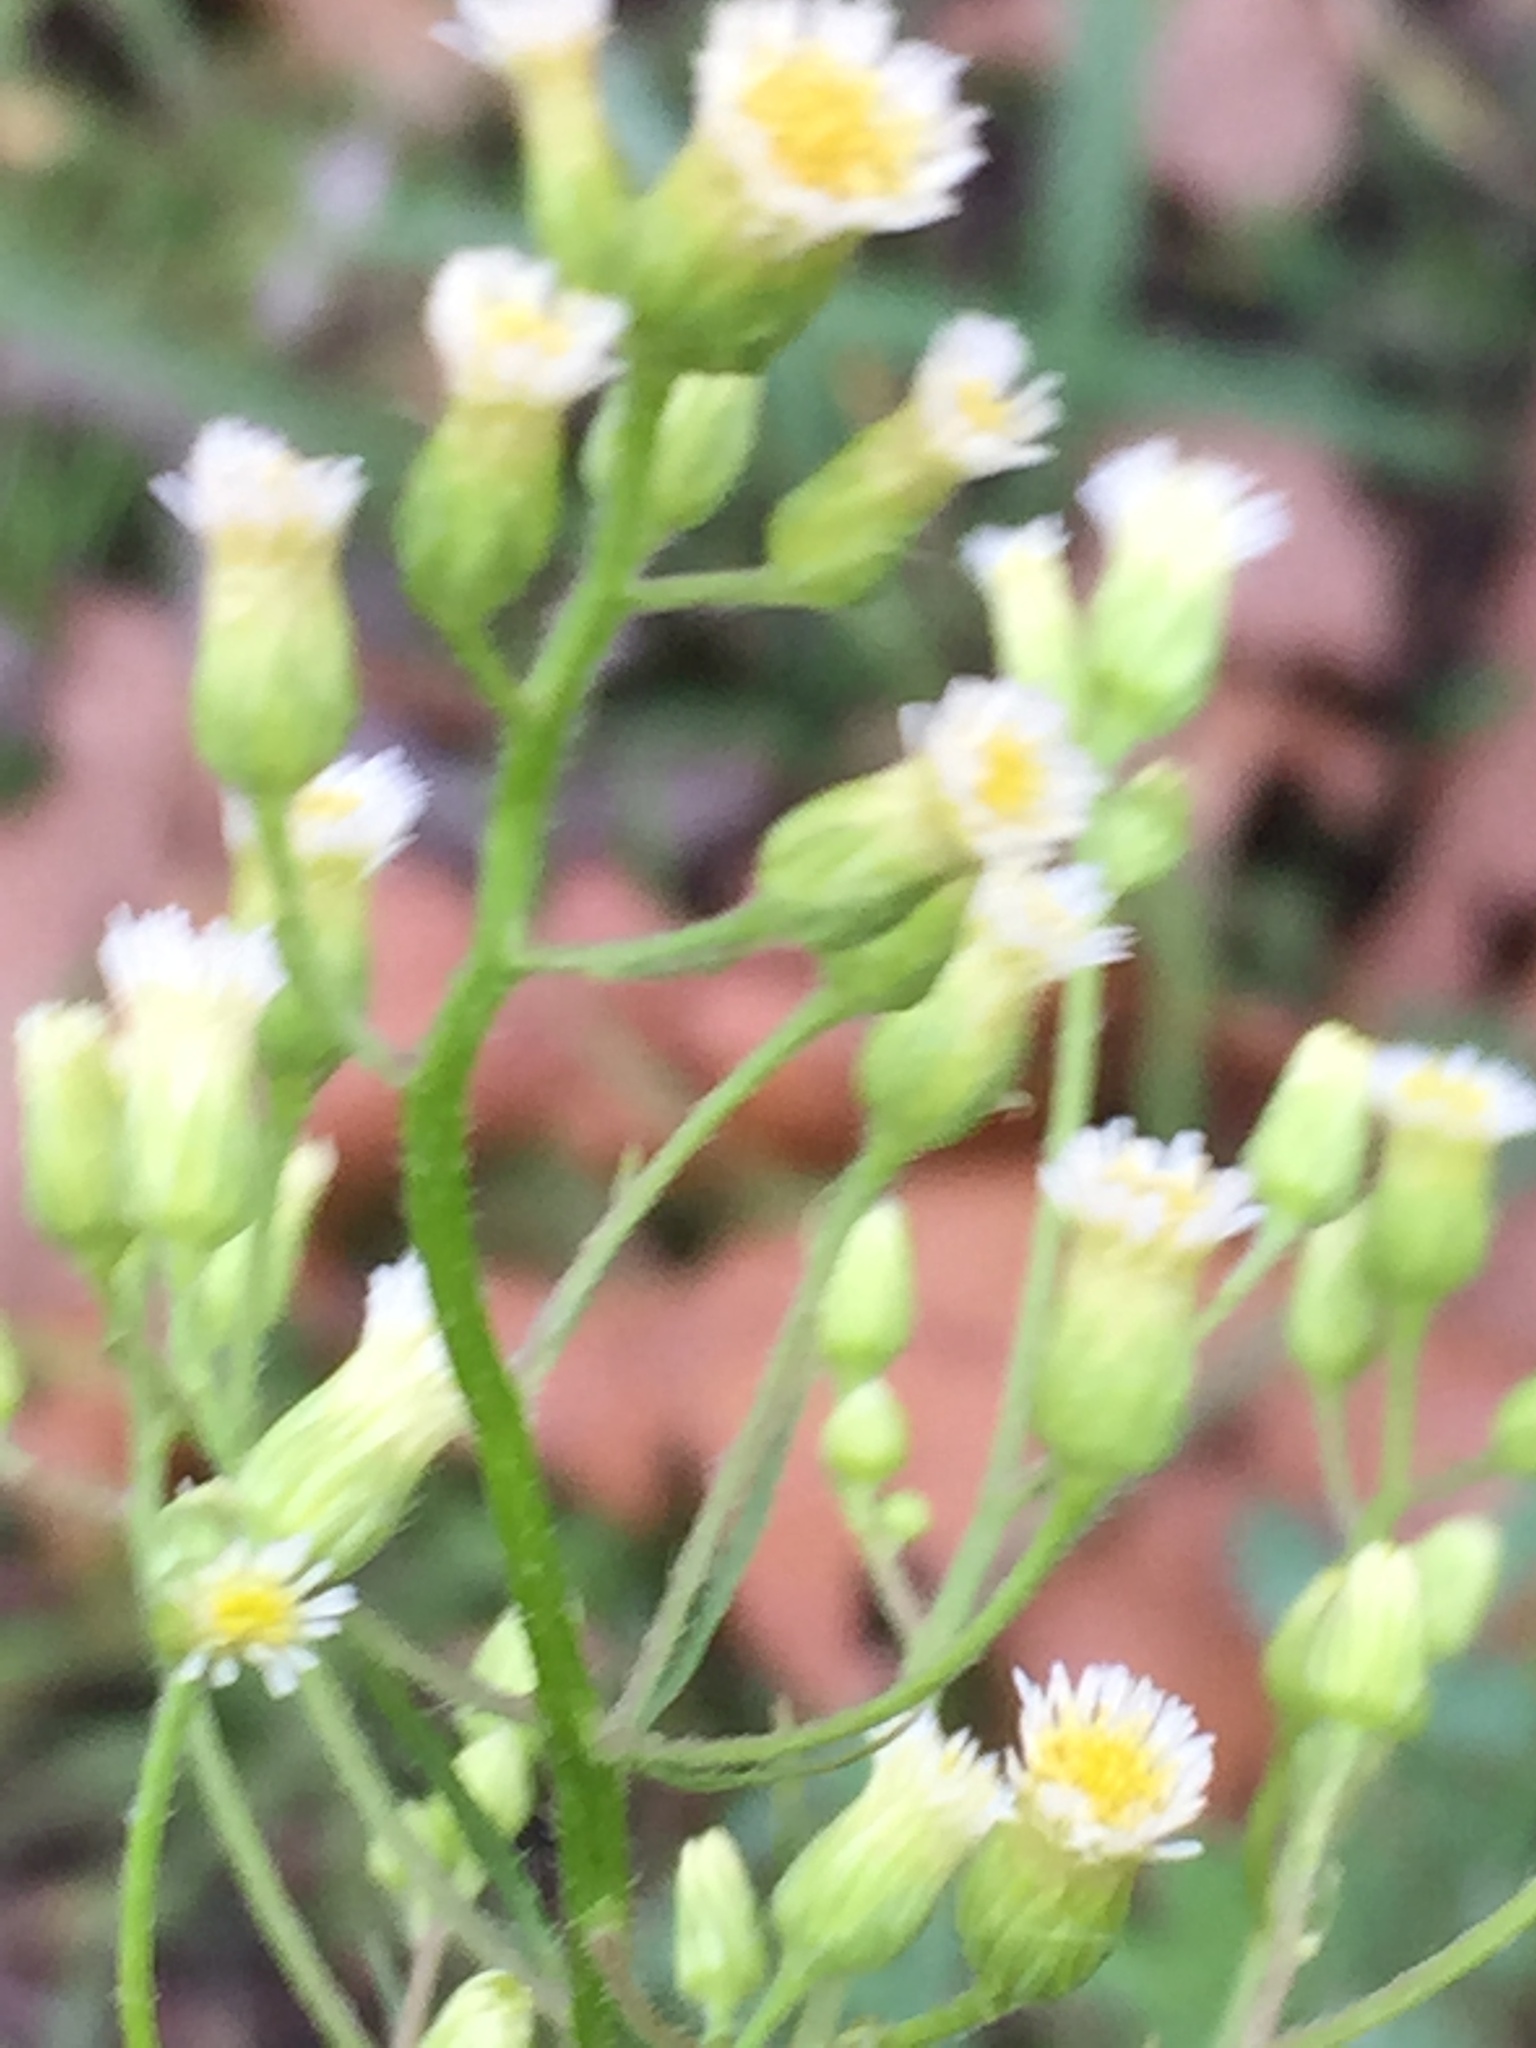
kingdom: Plantae
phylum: Tracheophyta
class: Magnoliopsida
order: Asterales
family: Asteraceae
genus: Erigeron
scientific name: Erigeron canadensis
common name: Canadian fleabane
